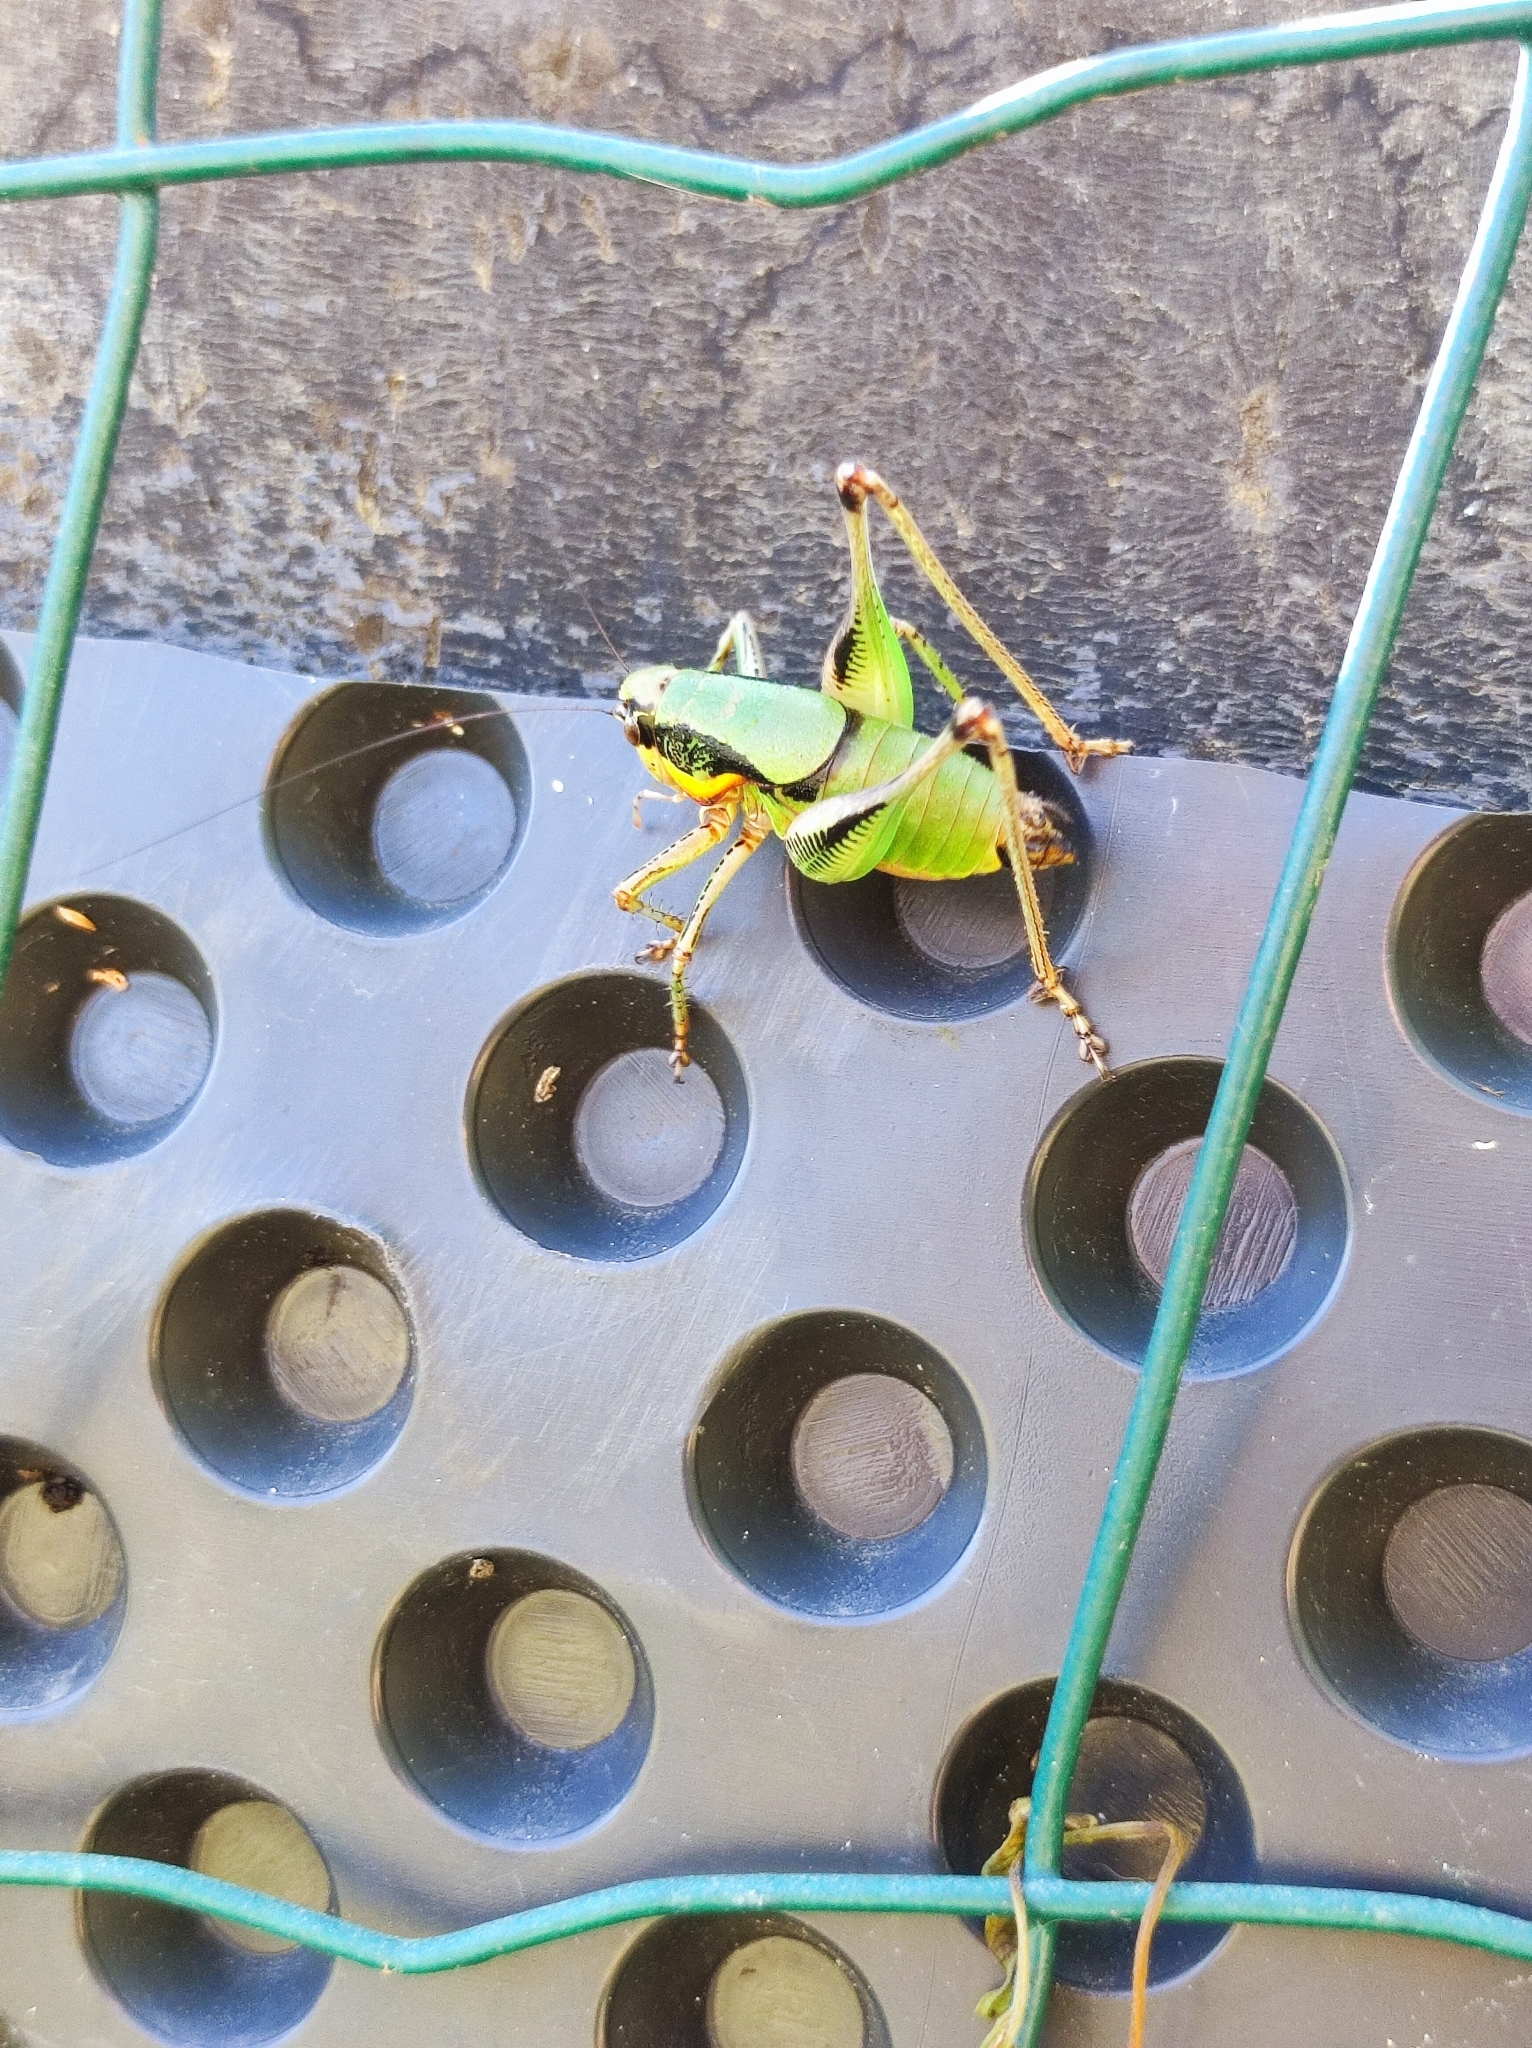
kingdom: Animalia
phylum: Arthropoda
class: Insecta
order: Orthoptera
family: Tettigoniidae
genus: Eupholidoptera
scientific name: Eupholidoptera schmidti
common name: Schmidt's marbled bush-cricket
